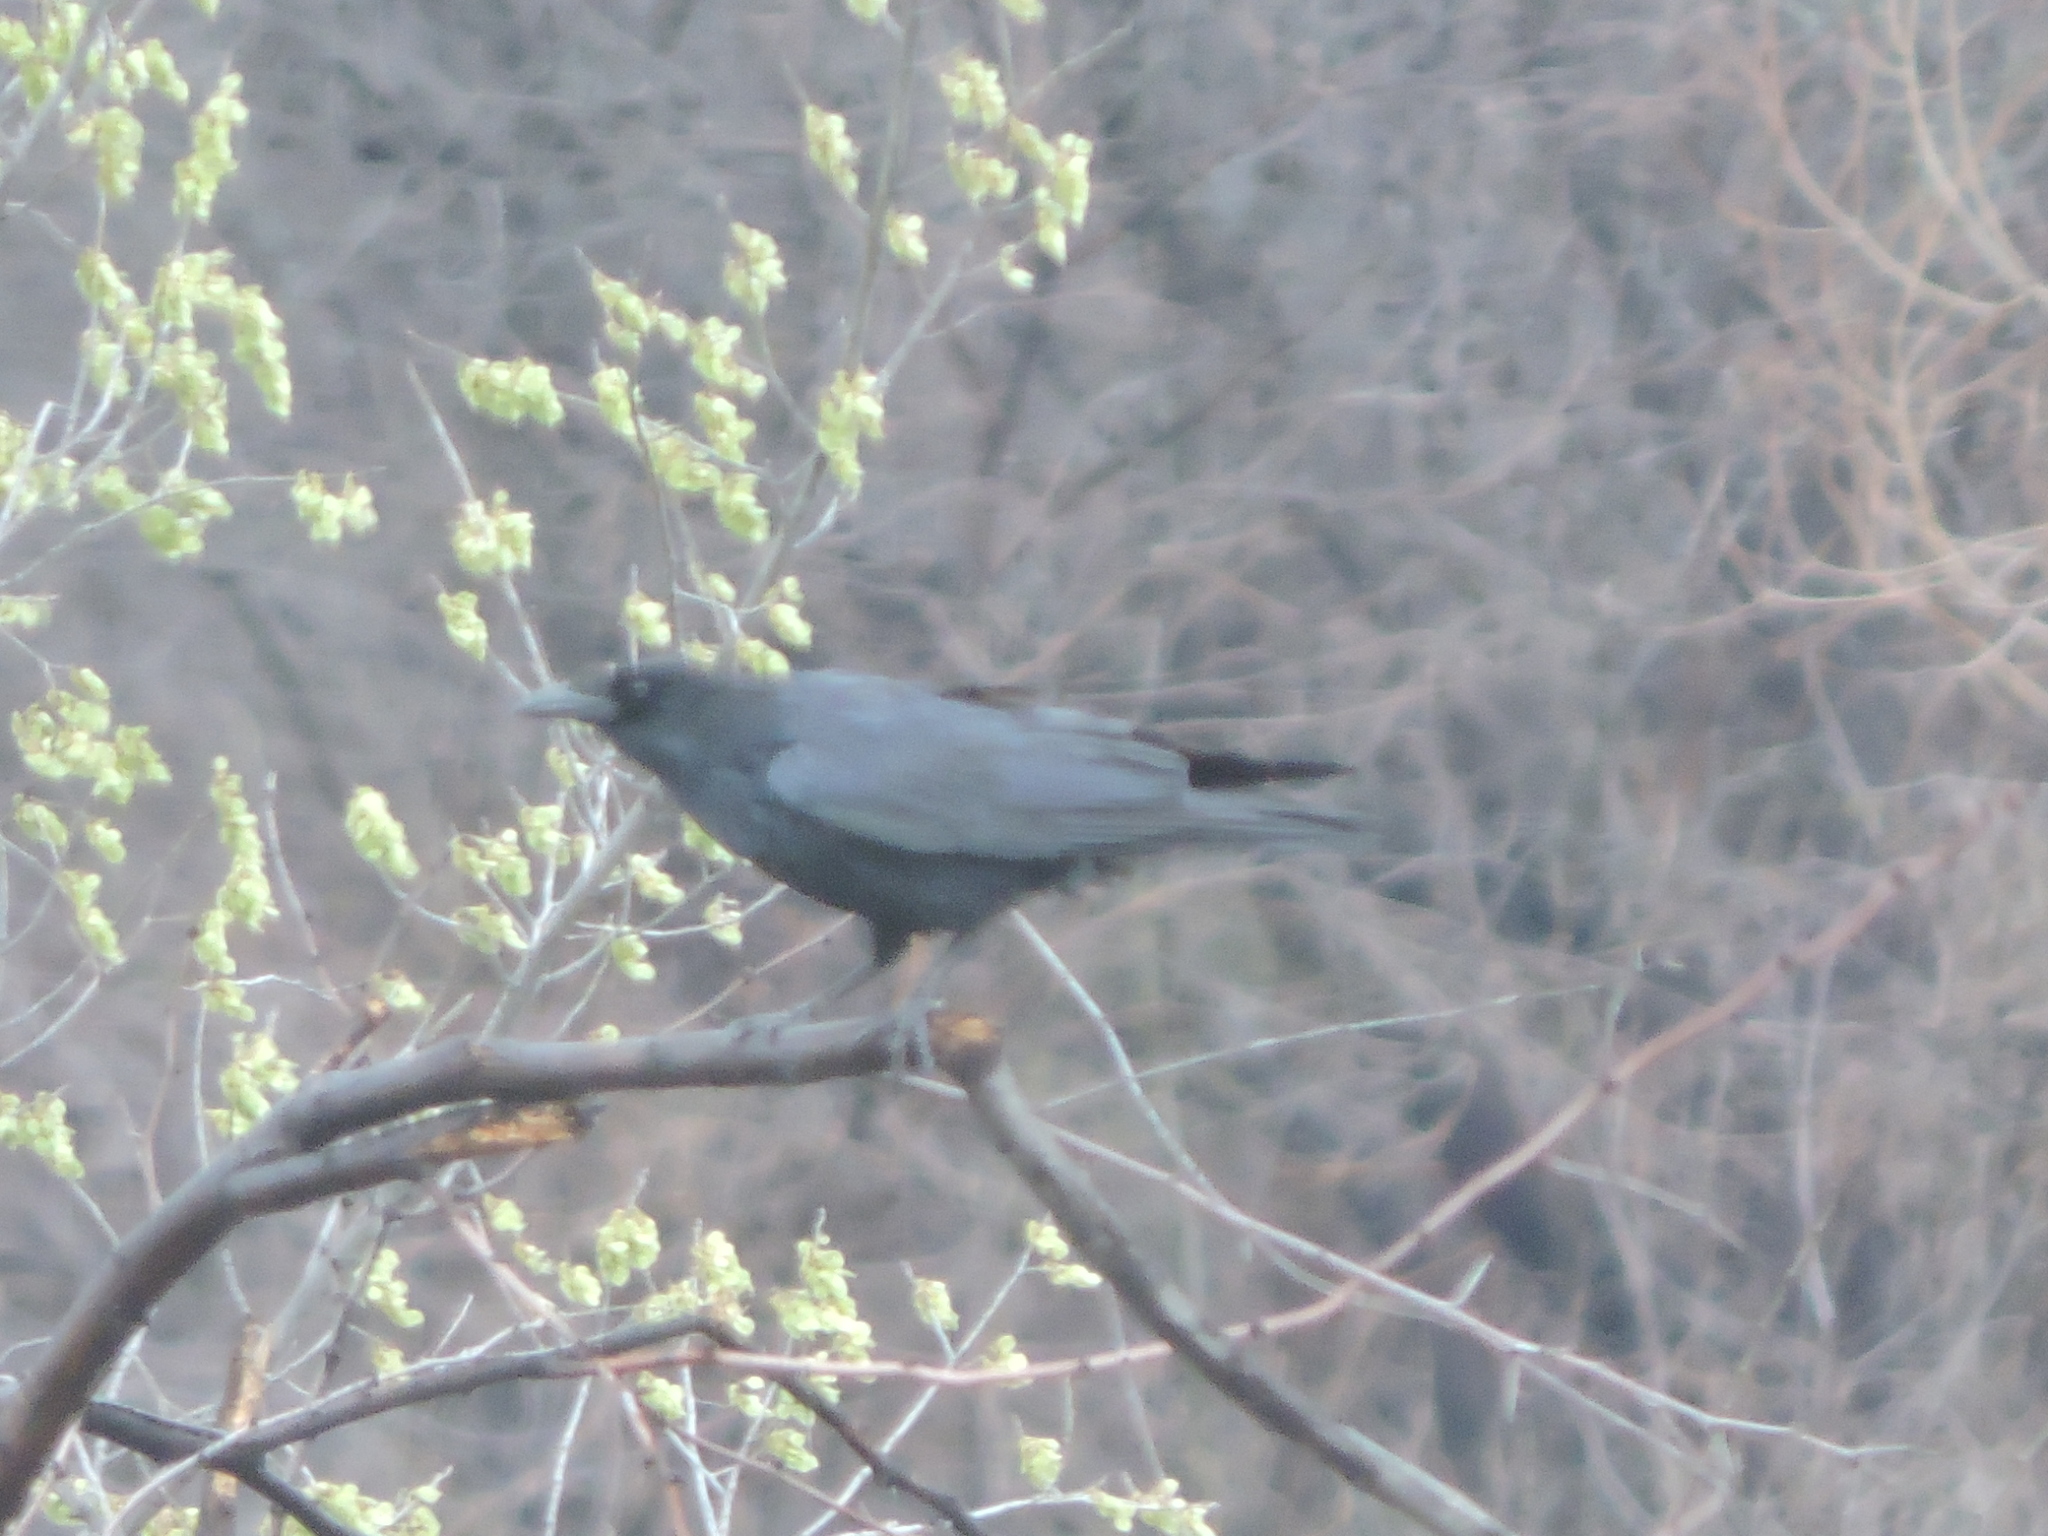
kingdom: Animalia
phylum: Chordata
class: Aves
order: Passeriformes
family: Corvidae
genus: Corvus
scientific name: Corvus brachyrhynchos
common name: American crow
